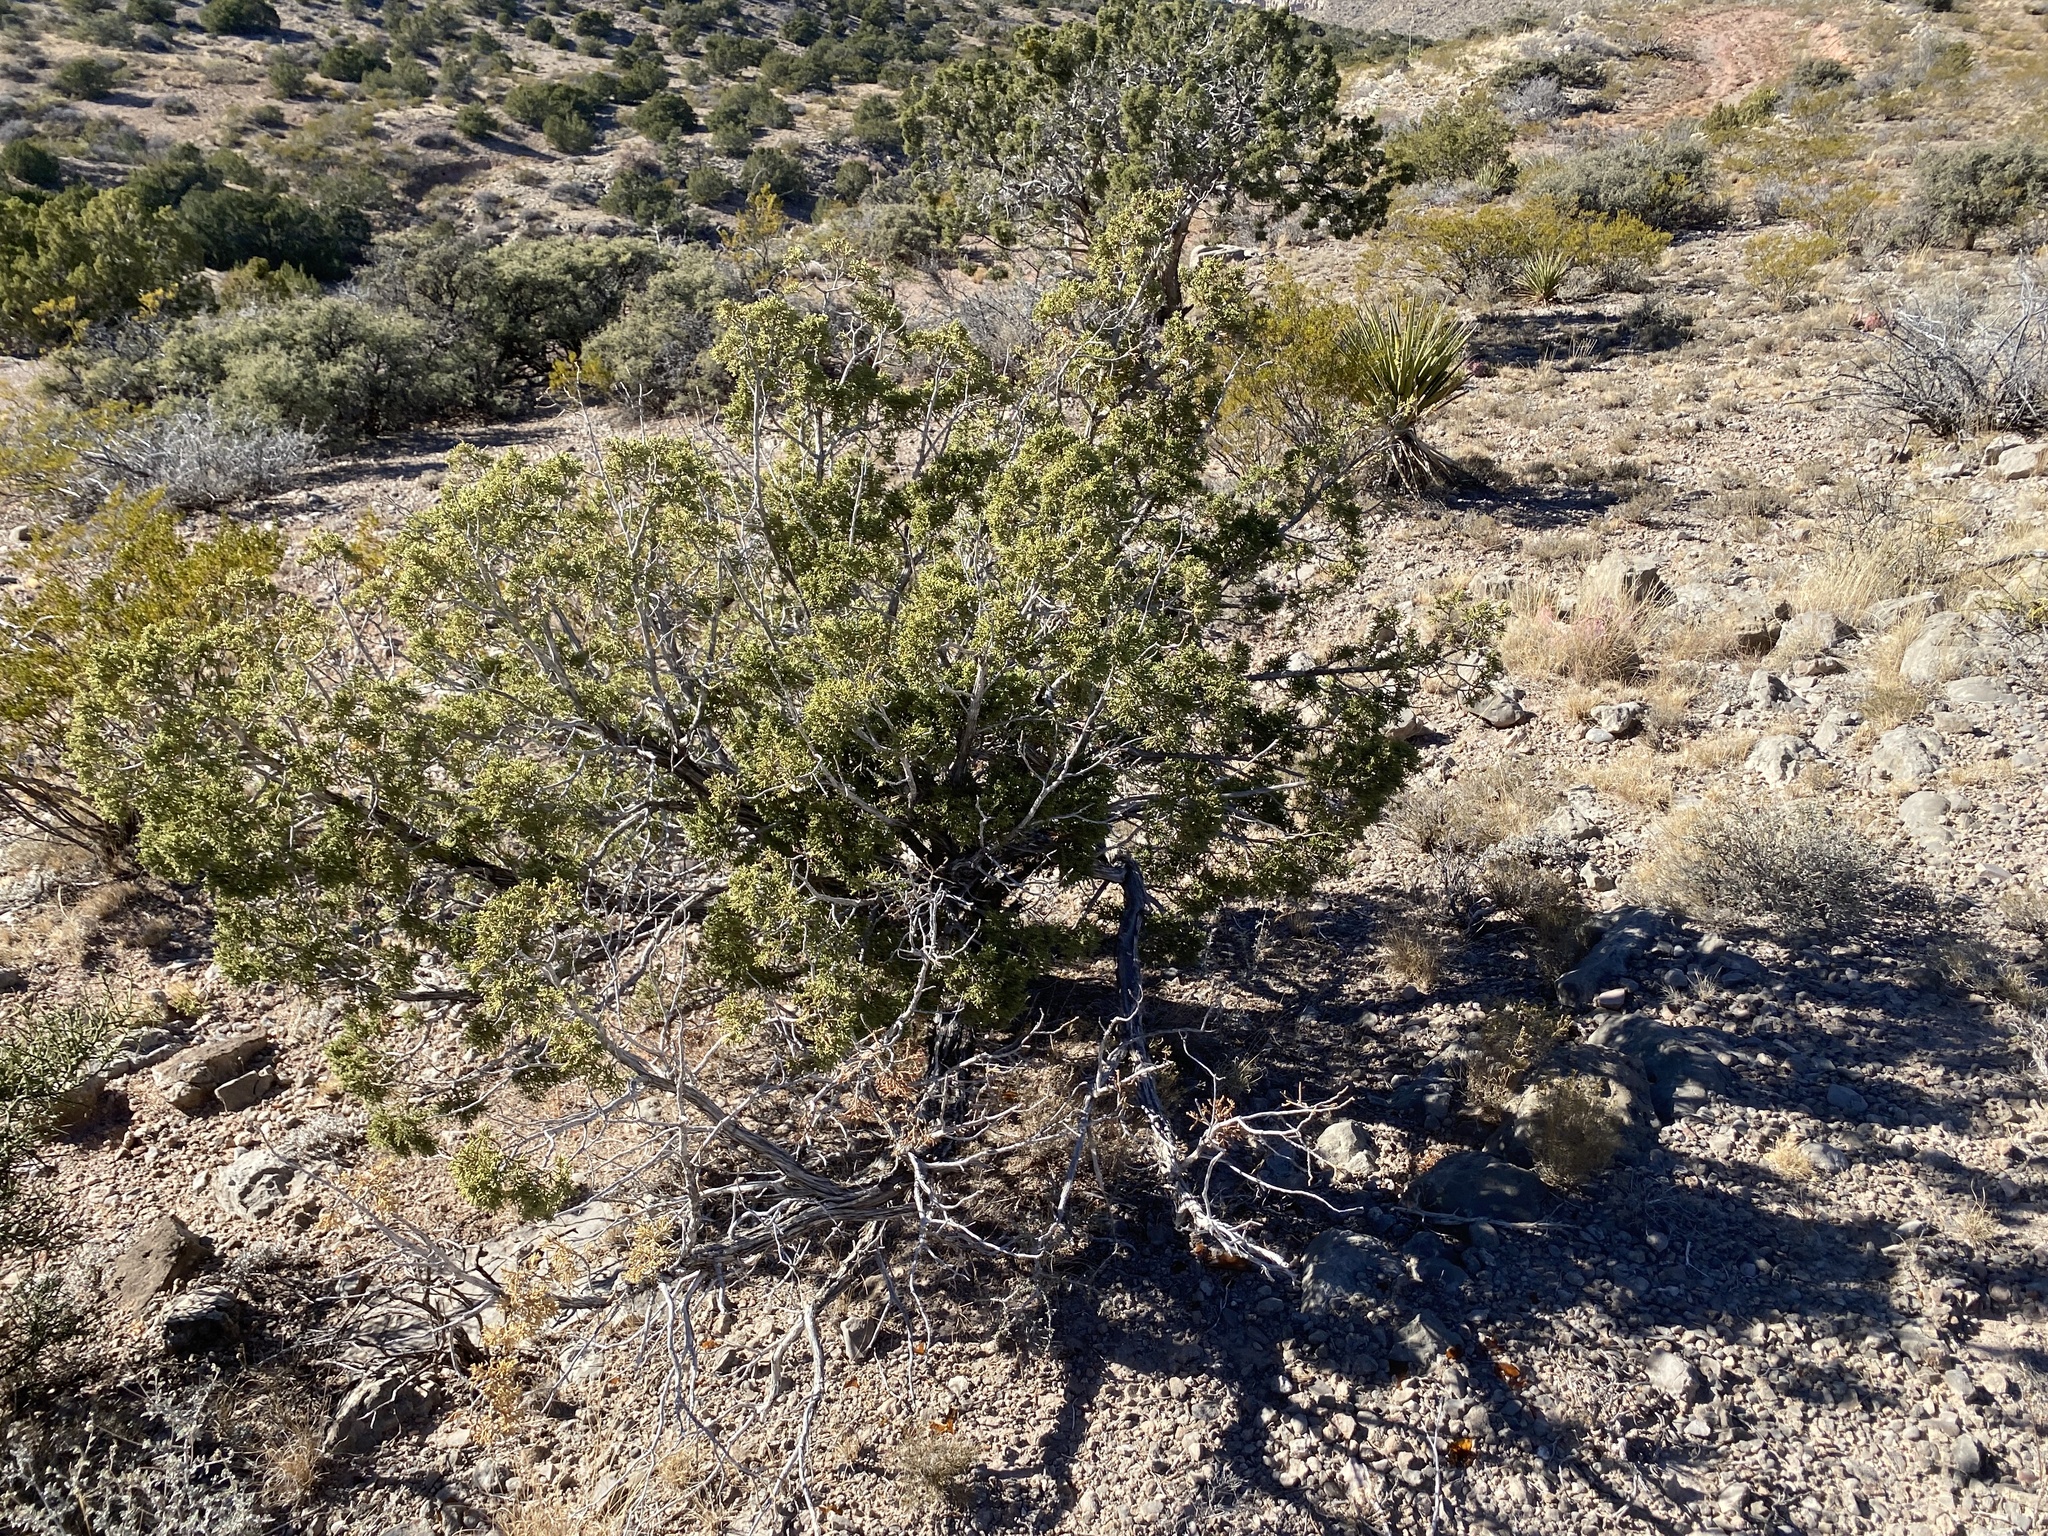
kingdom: Plantae
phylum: Tracheophyta
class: Pinopsida
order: Pinales
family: Cupressaceae
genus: Juniperus
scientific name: Juniperus monosperma
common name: One-seed juniper
